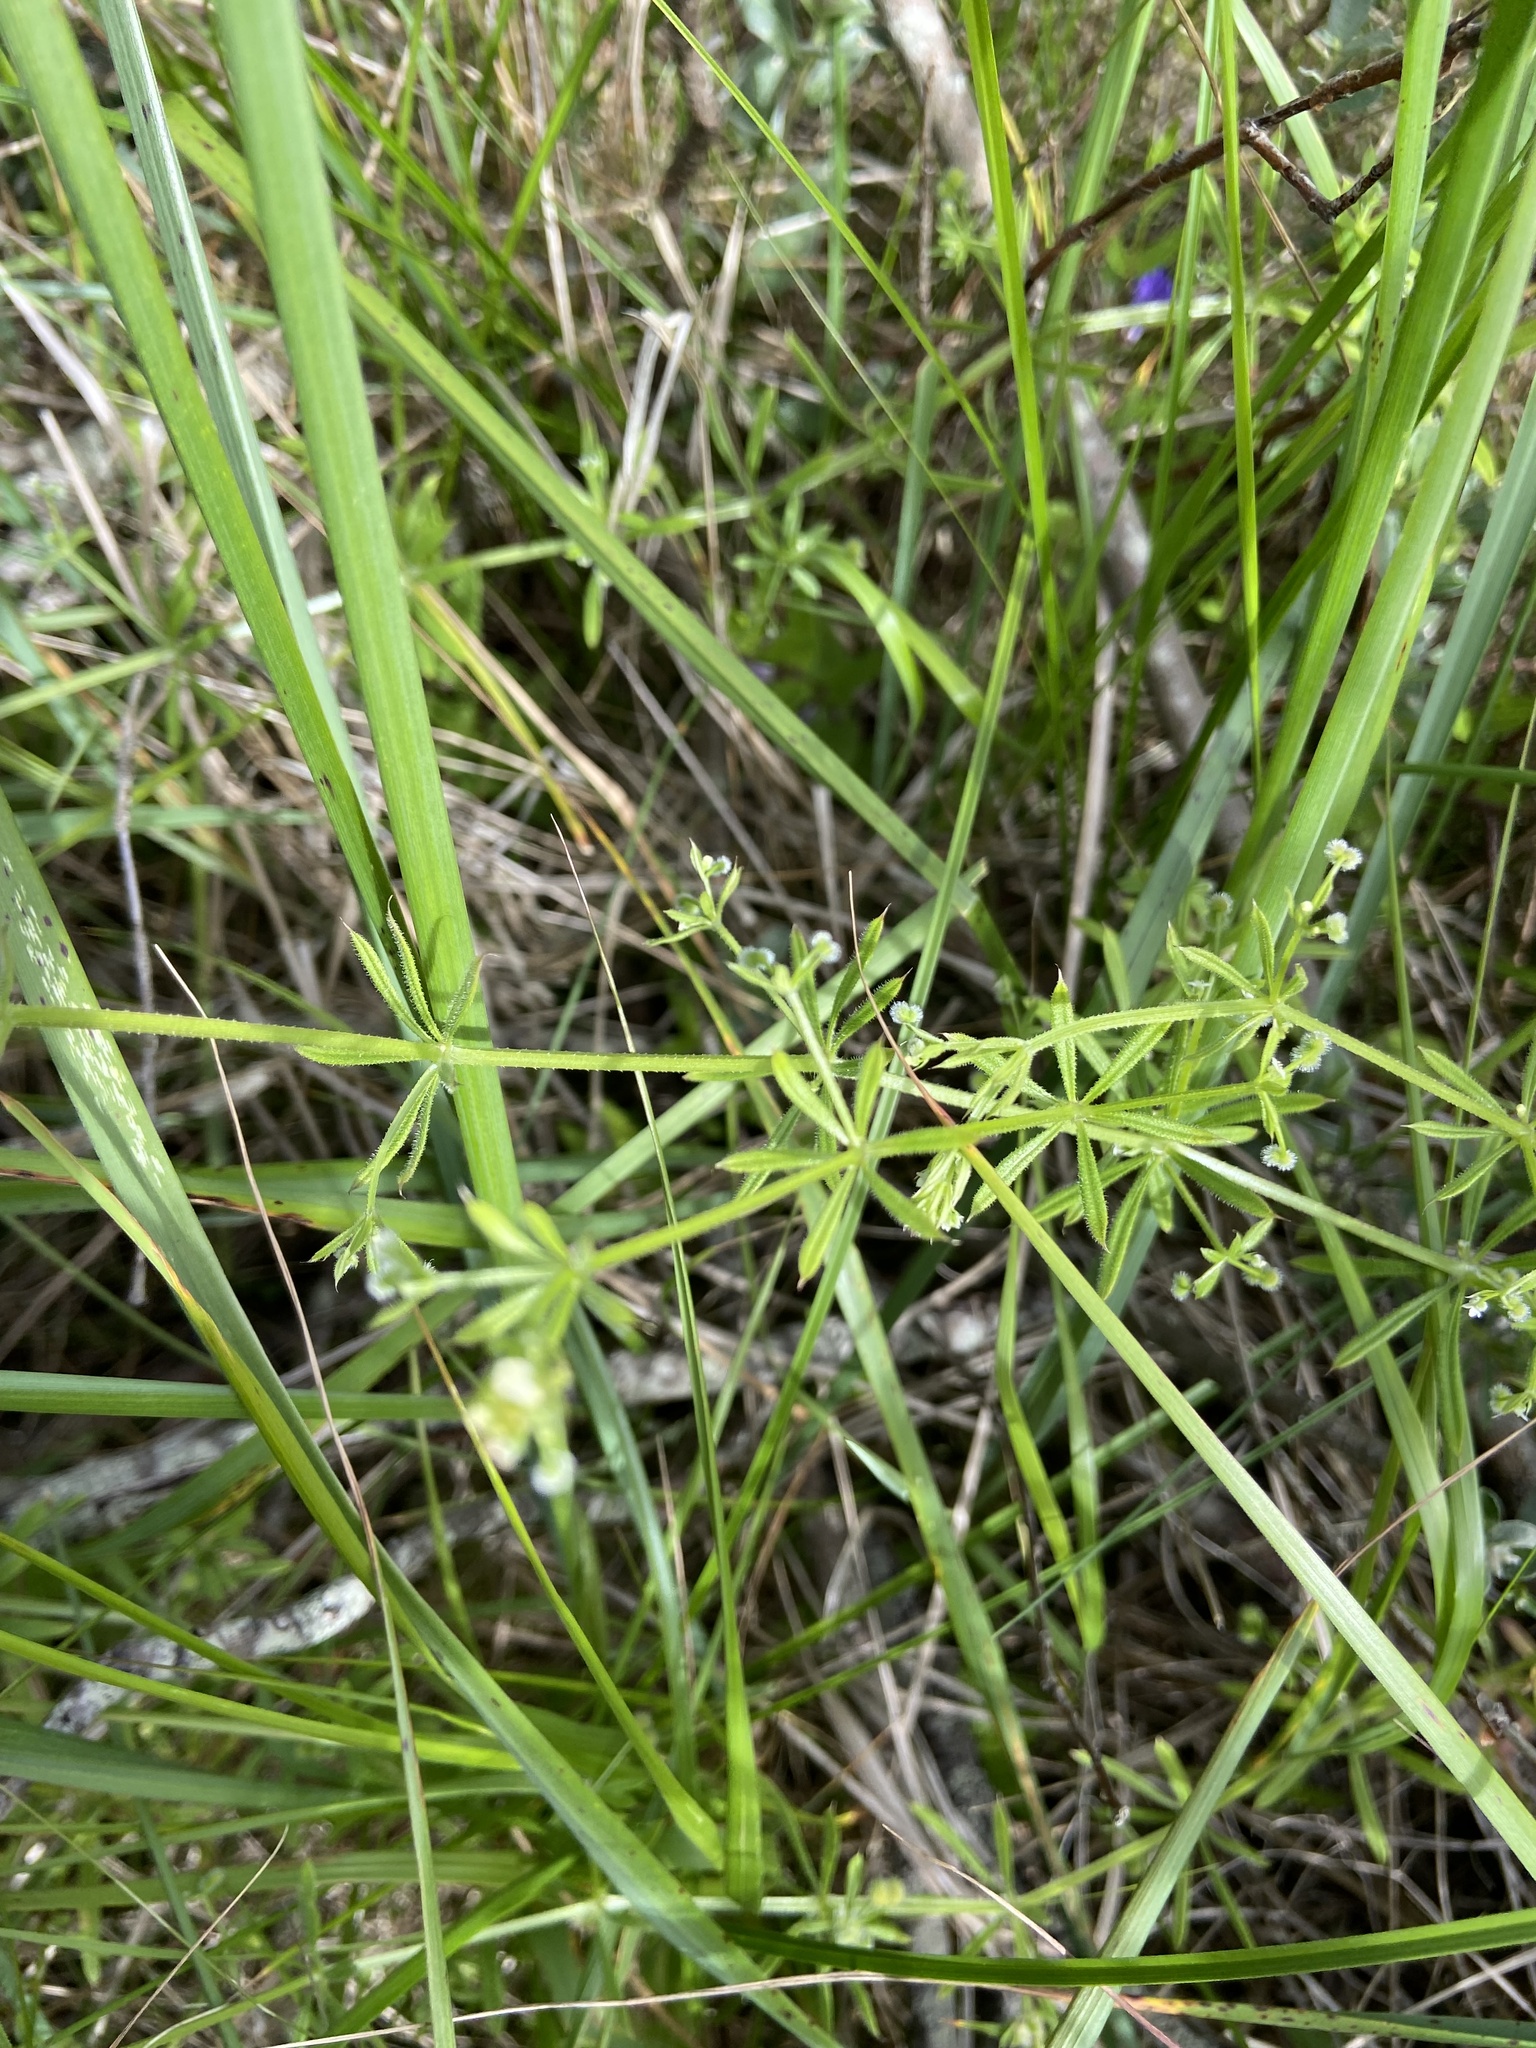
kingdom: Plantae
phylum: Tracheophyta
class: Magnoliopsida
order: Gentianales
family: Rubiaceae
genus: Galium
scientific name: Galium aparine
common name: Cleavers
